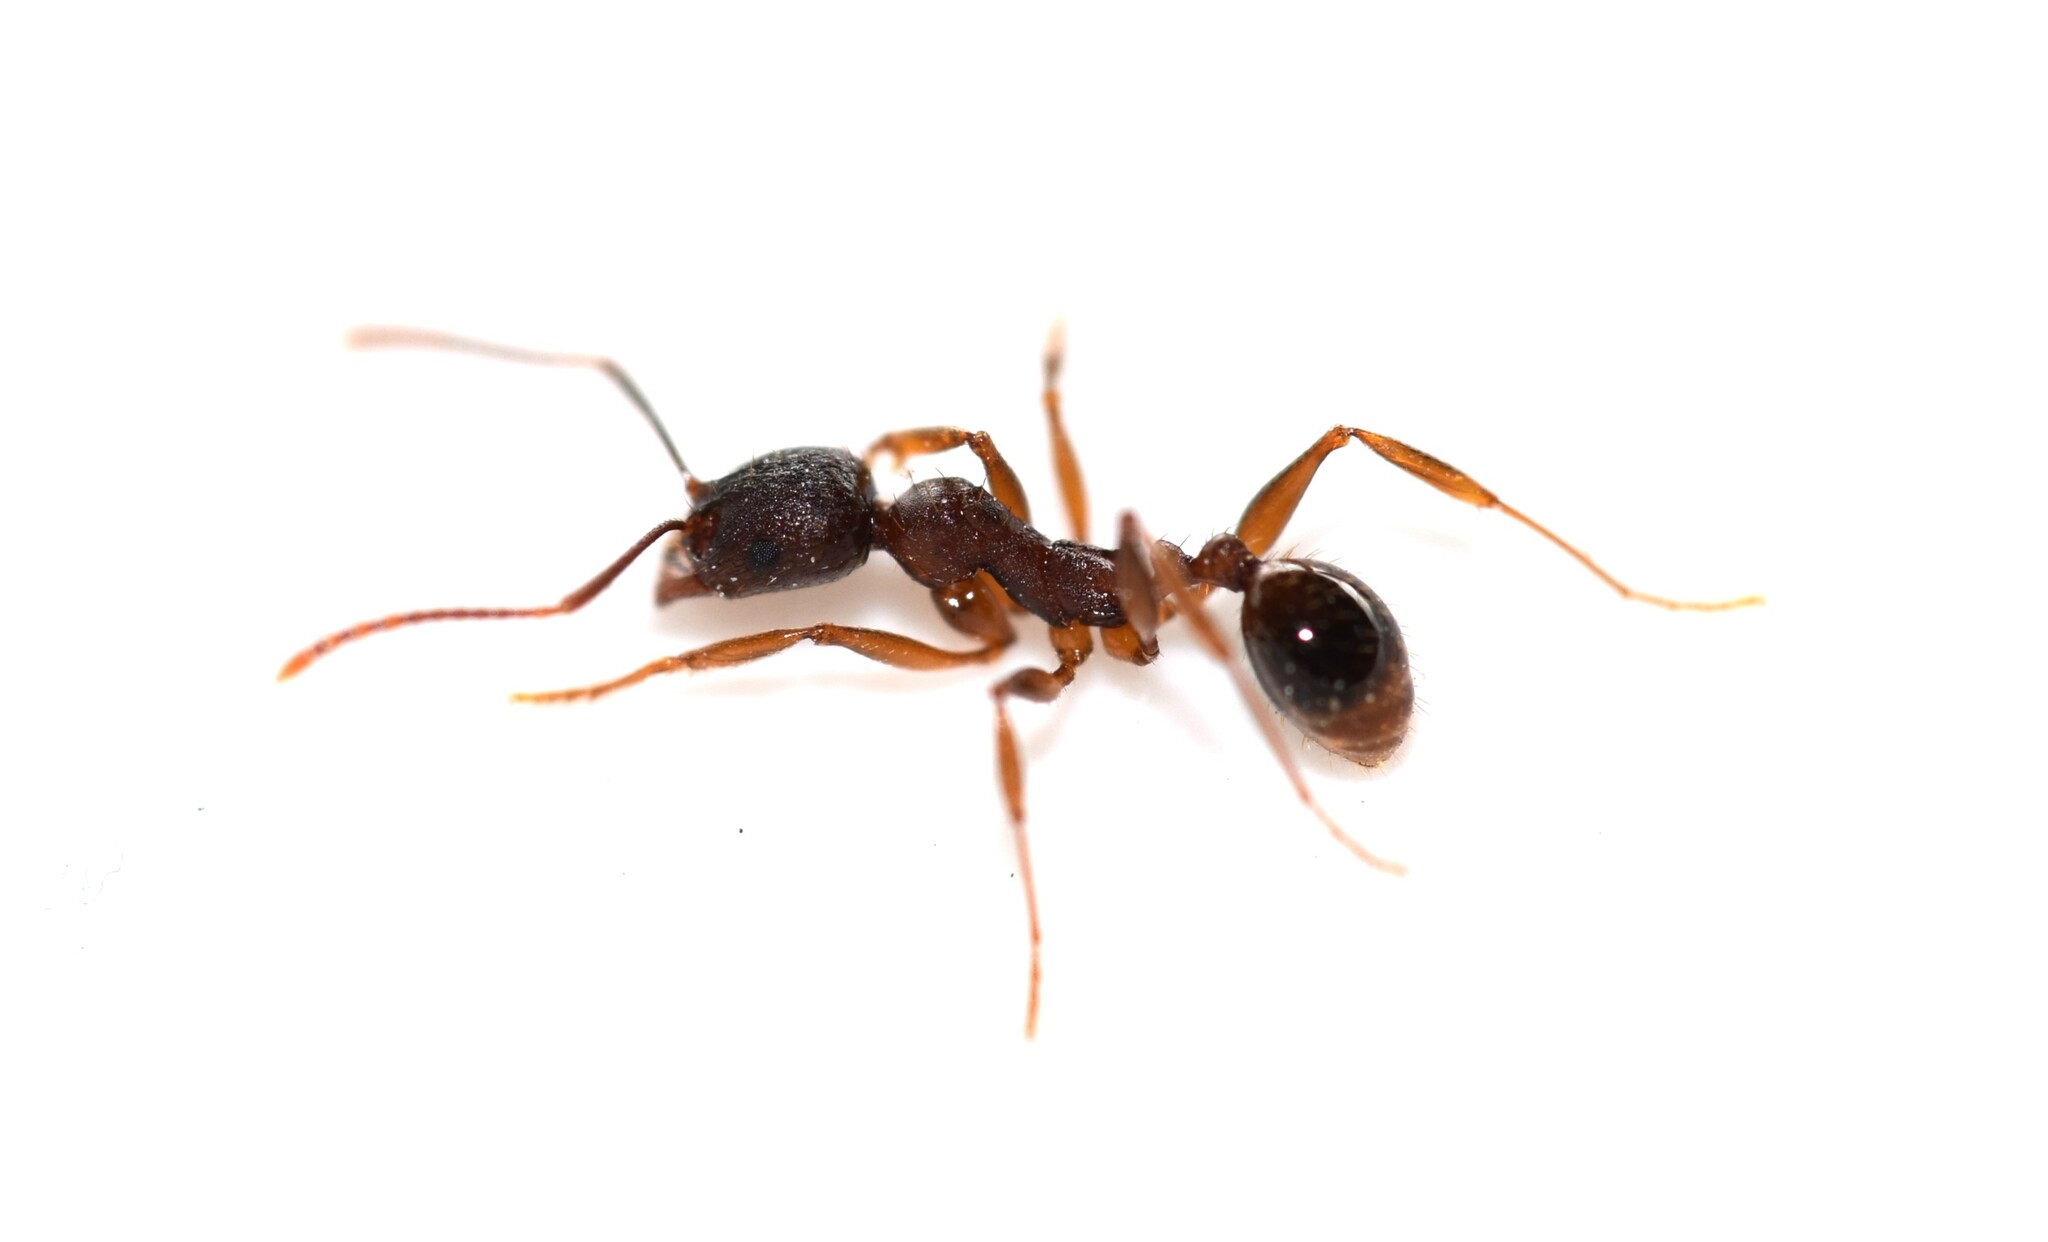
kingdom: Animalia
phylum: Arthropoda
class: Insecta
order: Hymenoptera
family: Formicidae
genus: Aphaenogaster
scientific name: Aphaenogaster rudis
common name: Winnow ant
